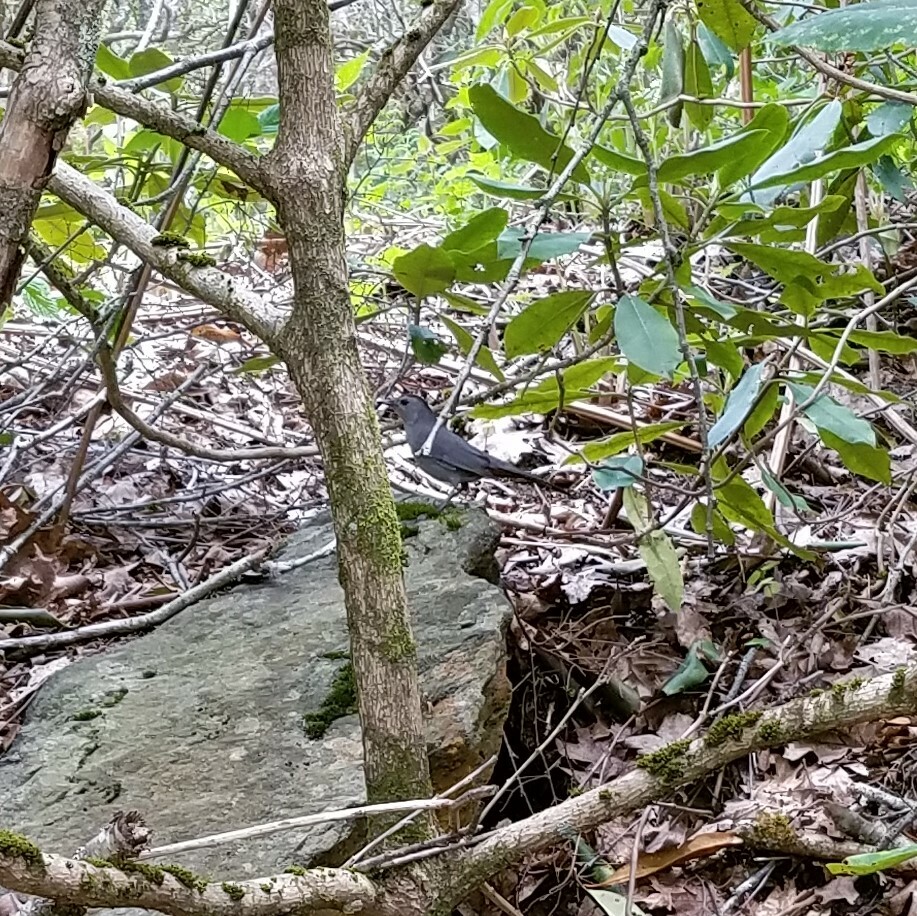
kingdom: Animalia
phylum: Chordata
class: Aves
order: Passeriformes
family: Mimidae
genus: Dumetella
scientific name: Dumetella carolinensis
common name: Gray catbird
